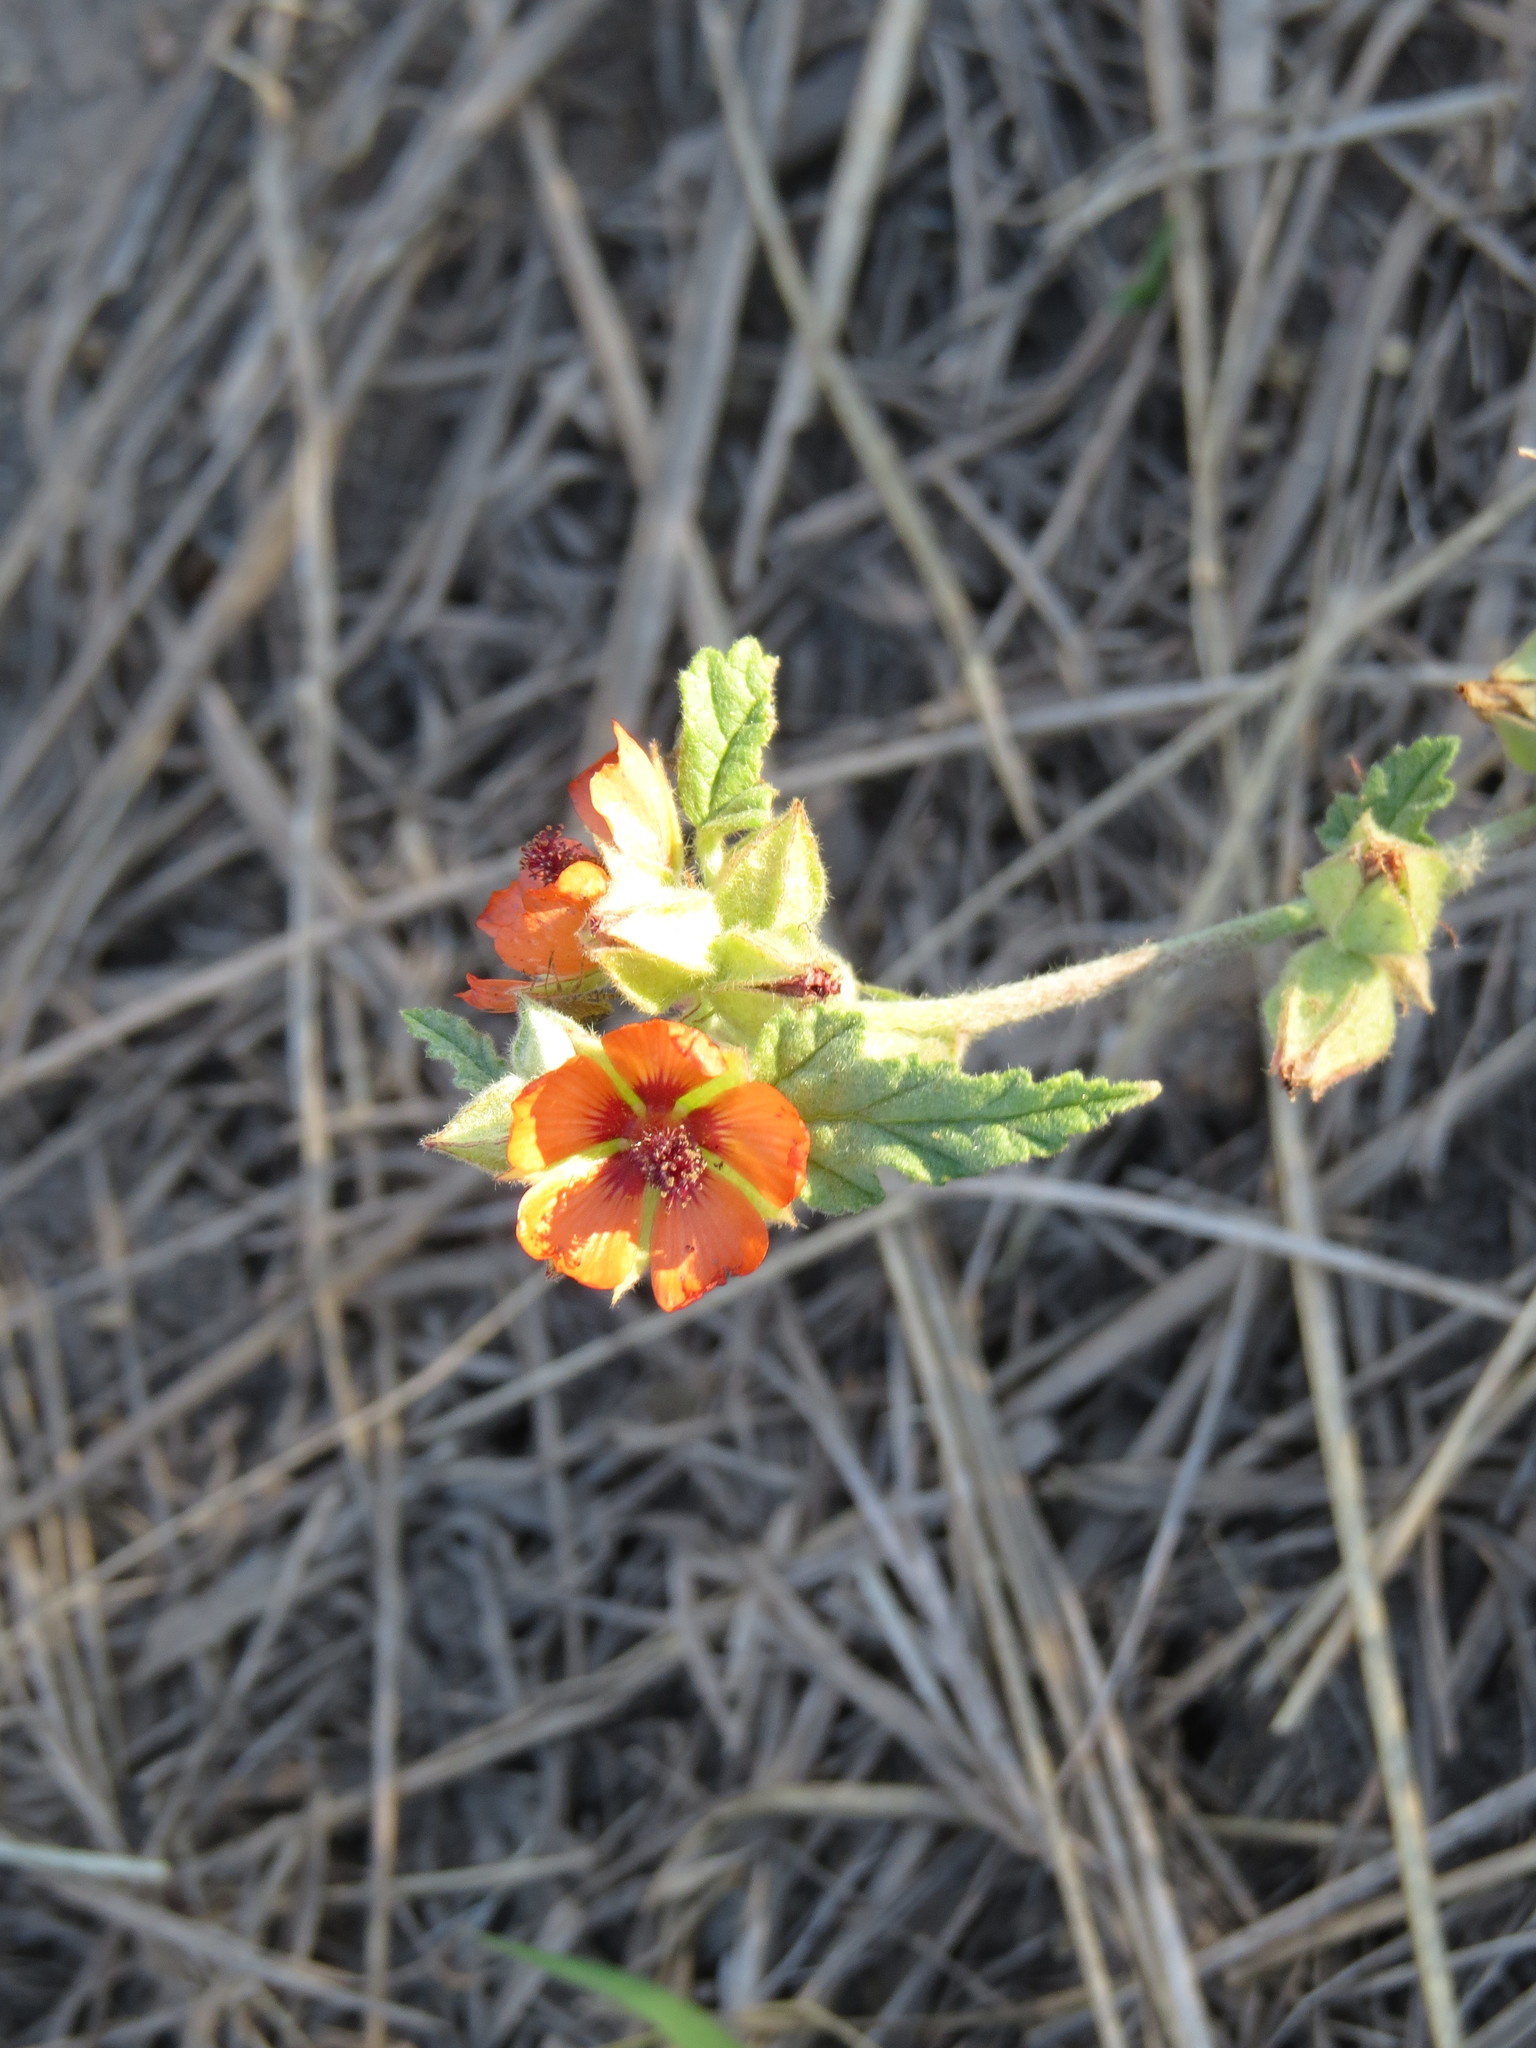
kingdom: Plantae
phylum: Tracheophyta
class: Magnoliopsida
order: Malvales
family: Malvaceae
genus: Sphaeralcea
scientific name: Sphaeralcea cordobensis
